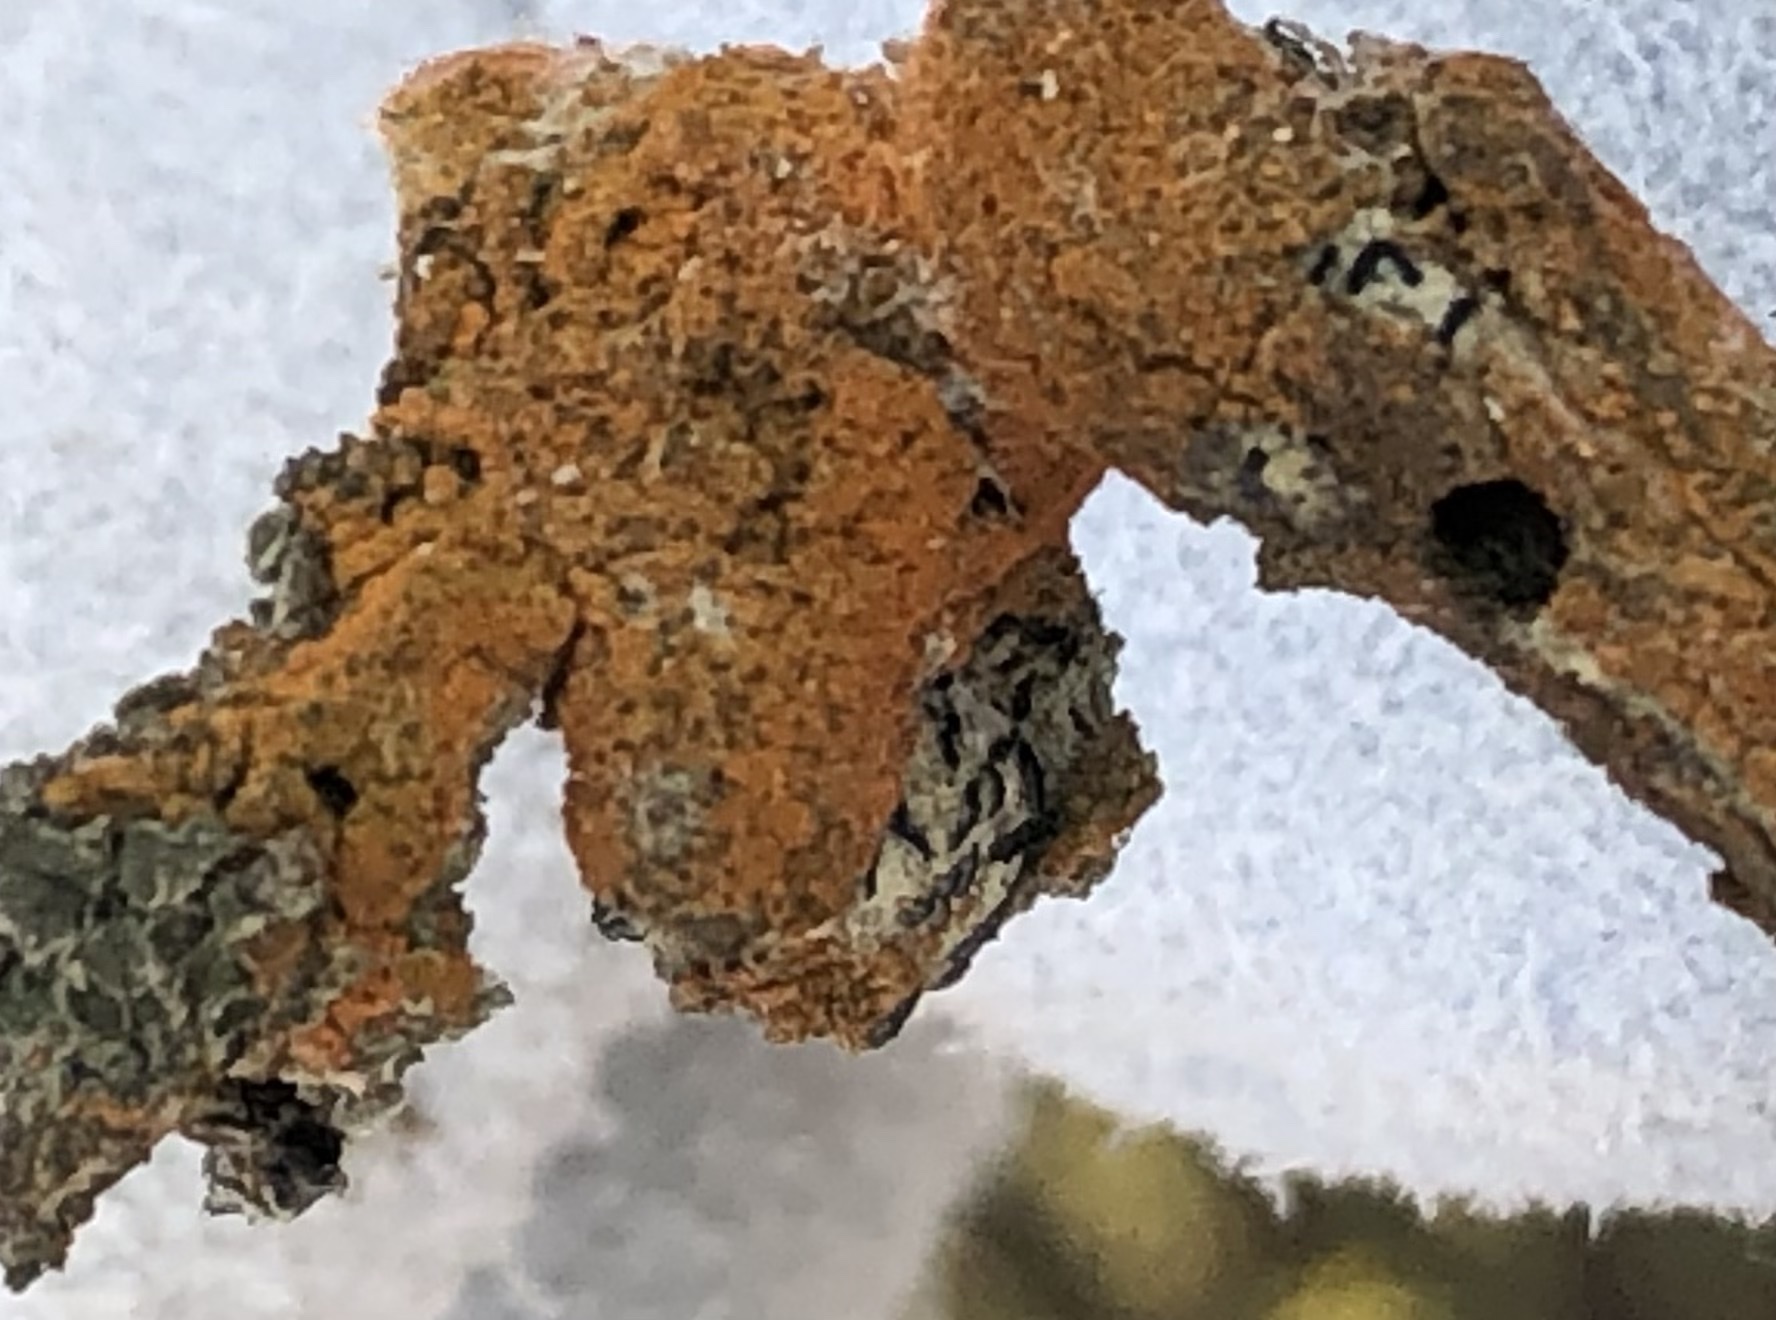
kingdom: Plantae
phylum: Chlorophyta
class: Ulvophyceae
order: Trentepohliales
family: Trentepohliaceae
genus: Trentepohlia
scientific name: Trentepohlia aurea
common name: Orange rock hair
